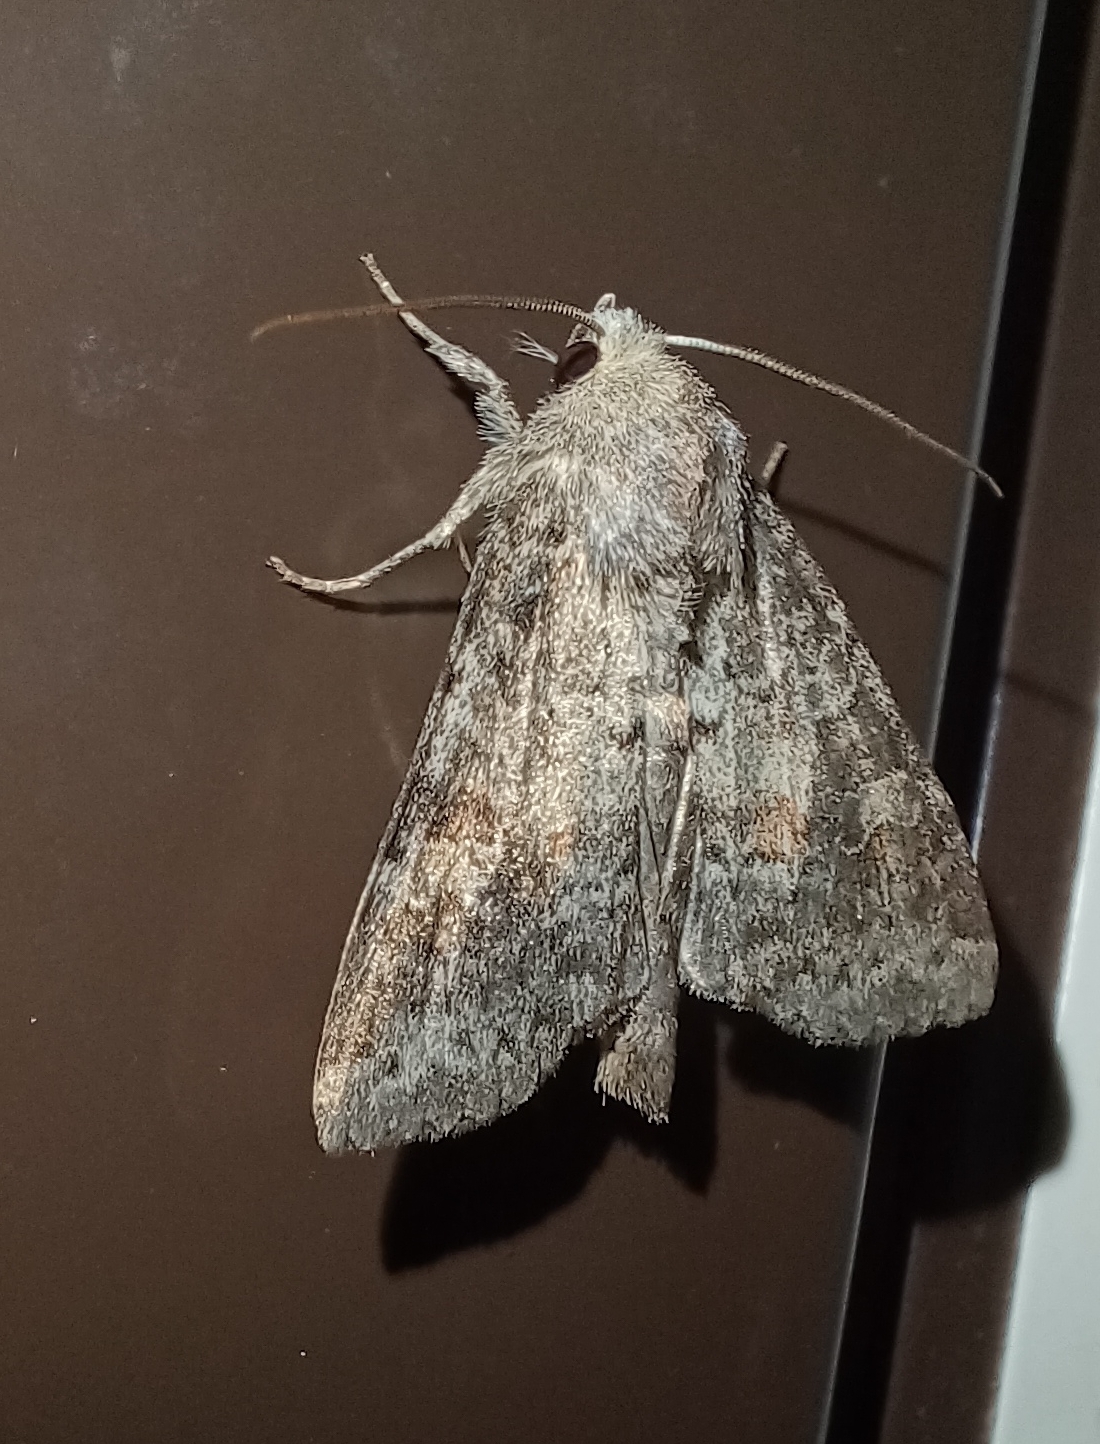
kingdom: Animalia
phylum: Arthropoda
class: Insecta
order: Lepidoptera
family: Noctuidae
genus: Parastichtis
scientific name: Parastichtis suspecta
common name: Suspected
